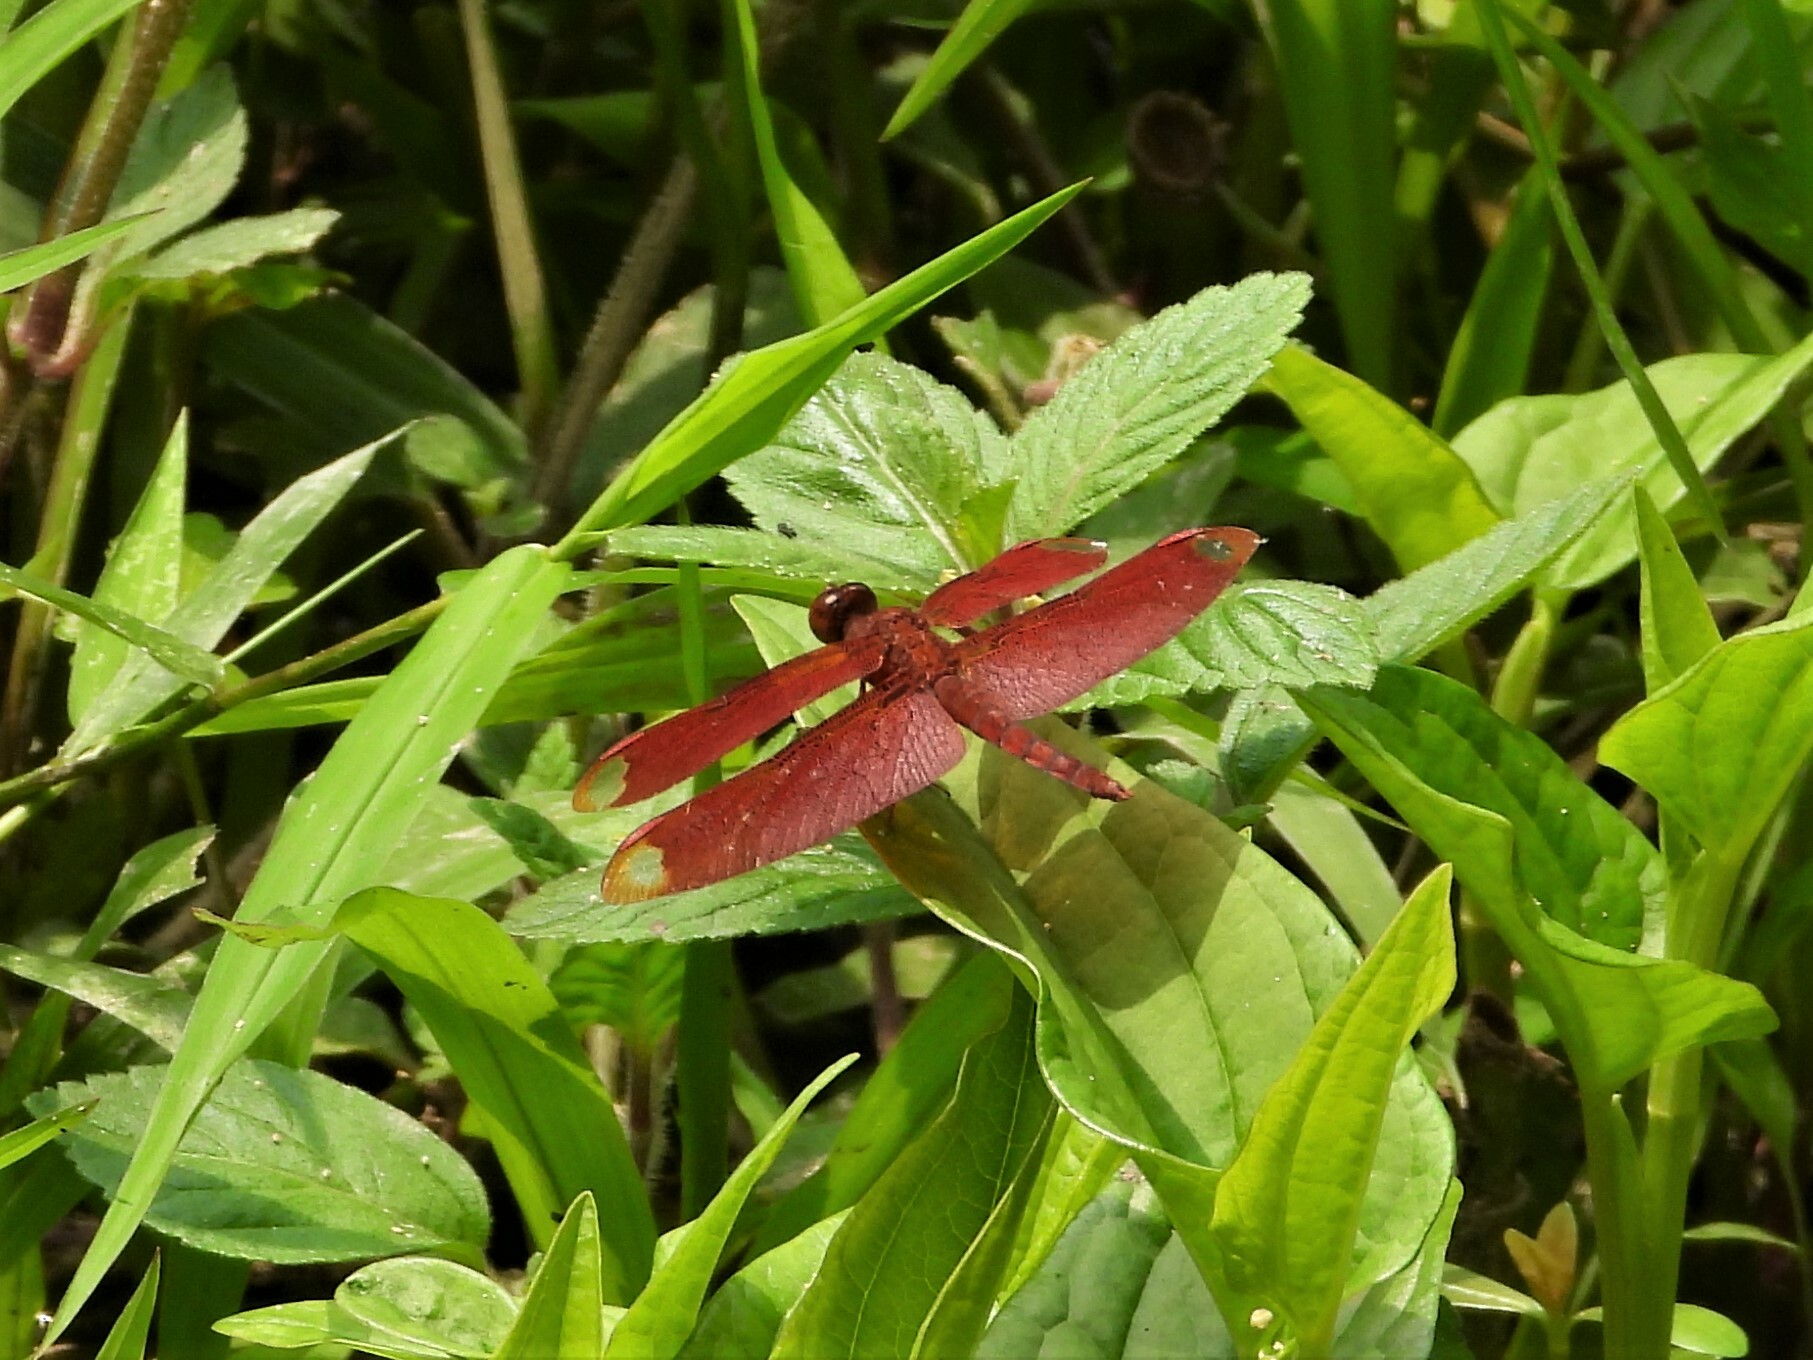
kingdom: Animalia
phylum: Arthropoda
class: Insecta
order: Odonata
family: Libellulidae
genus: Neurothemis
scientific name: Neurothemis fulvia
